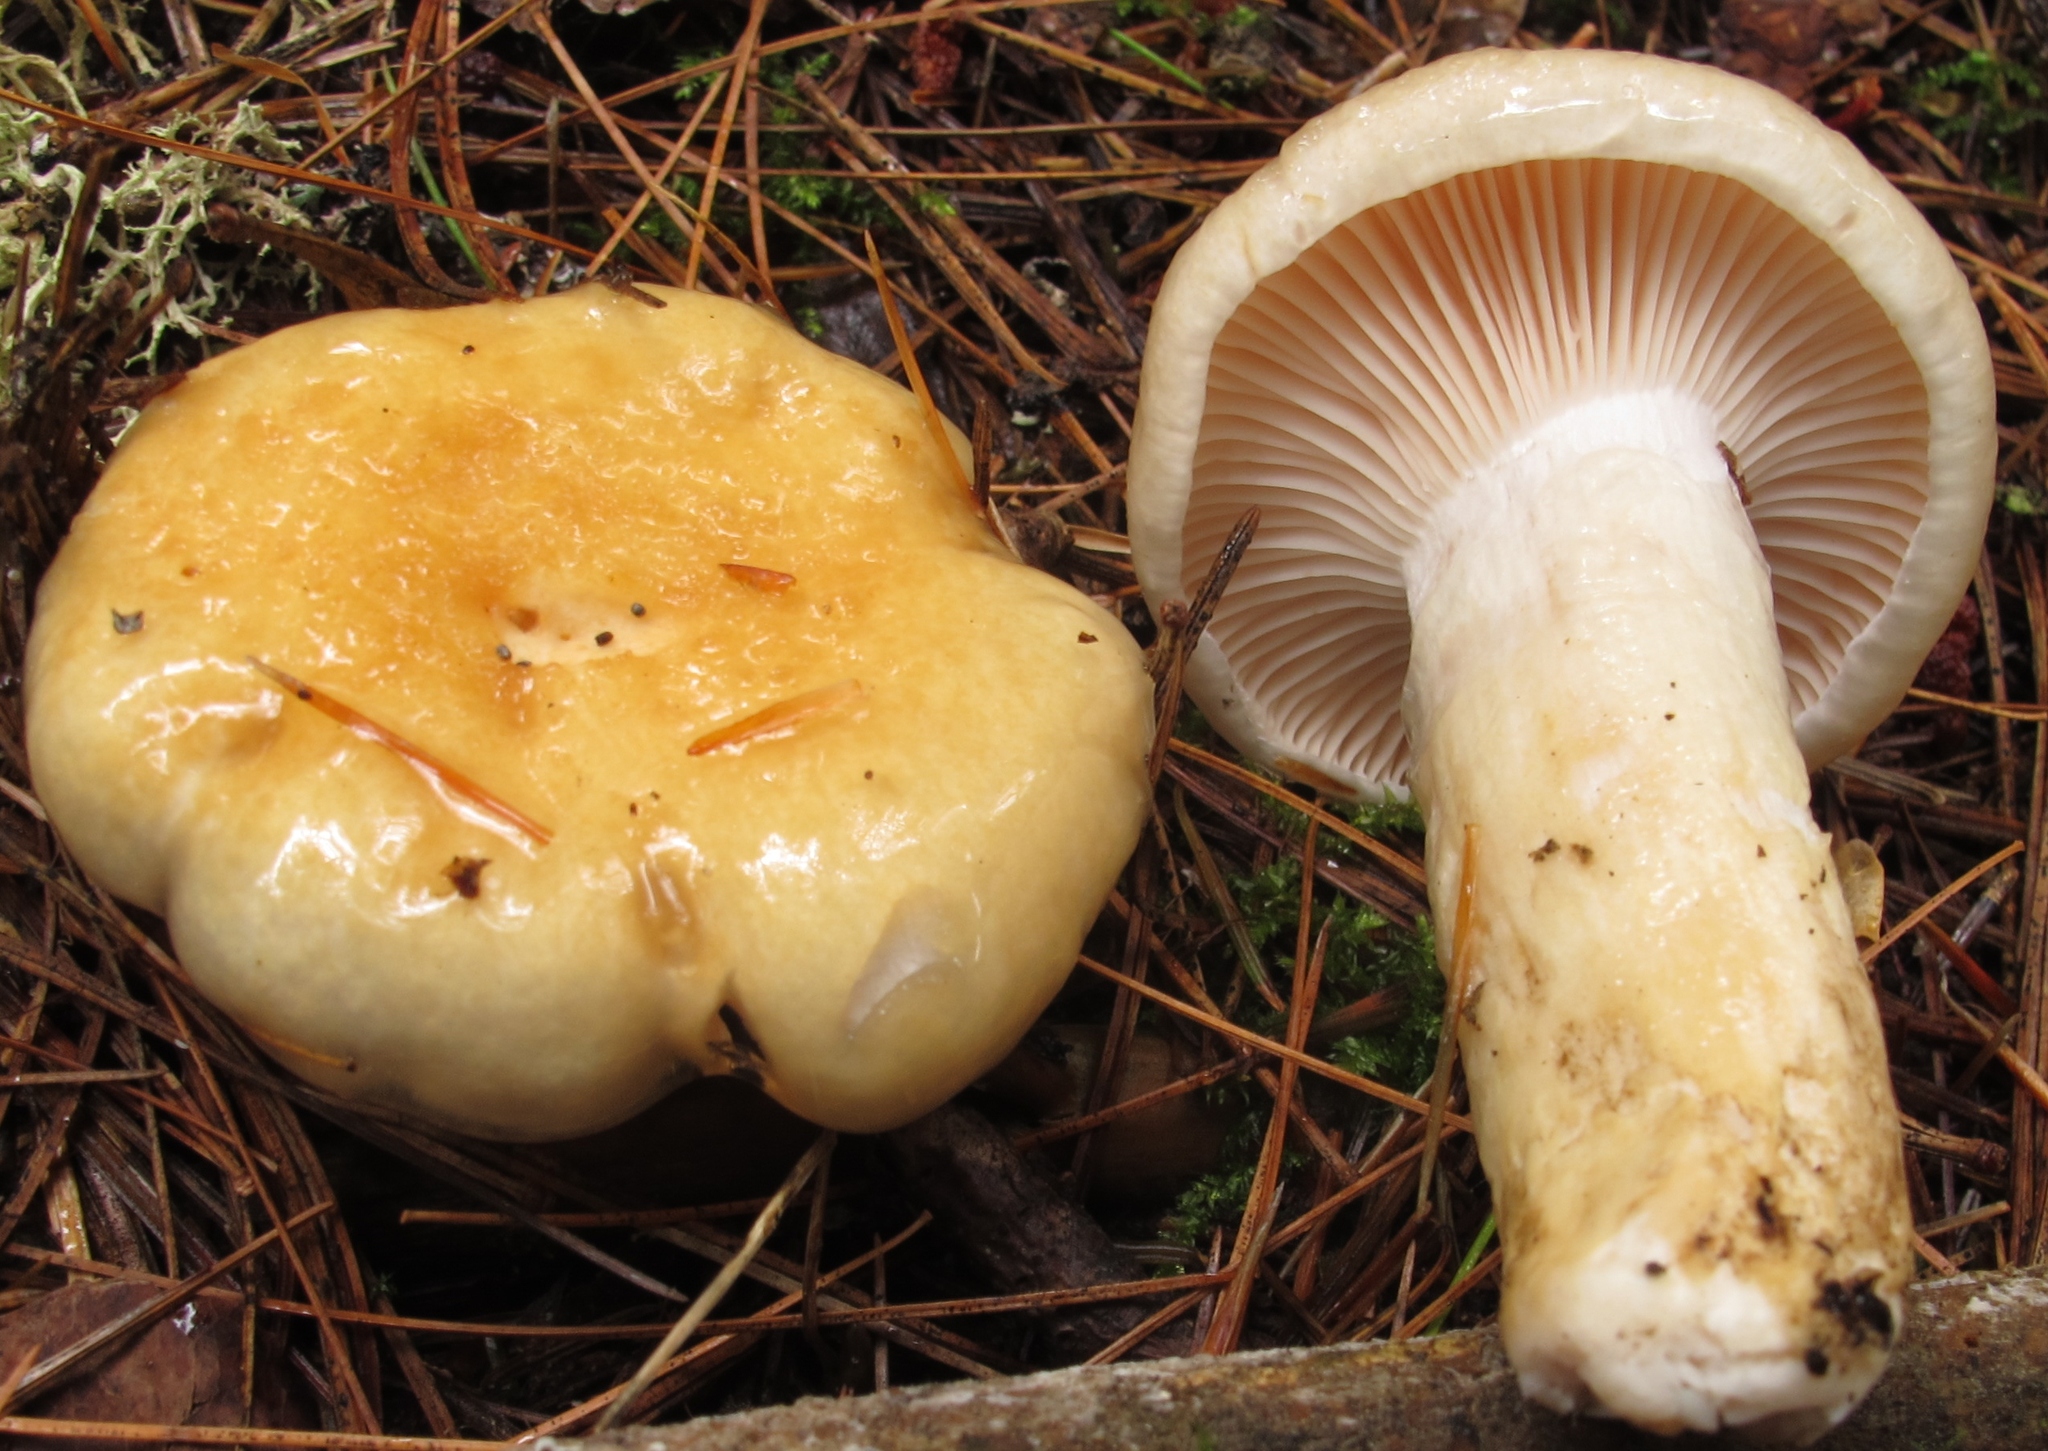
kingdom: Fungi
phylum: Basidiomycota
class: Agaricomycetes
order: Agaricales
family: Hygrophoraceae
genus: Hygrophorus
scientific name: Hygrophorus ligatus
